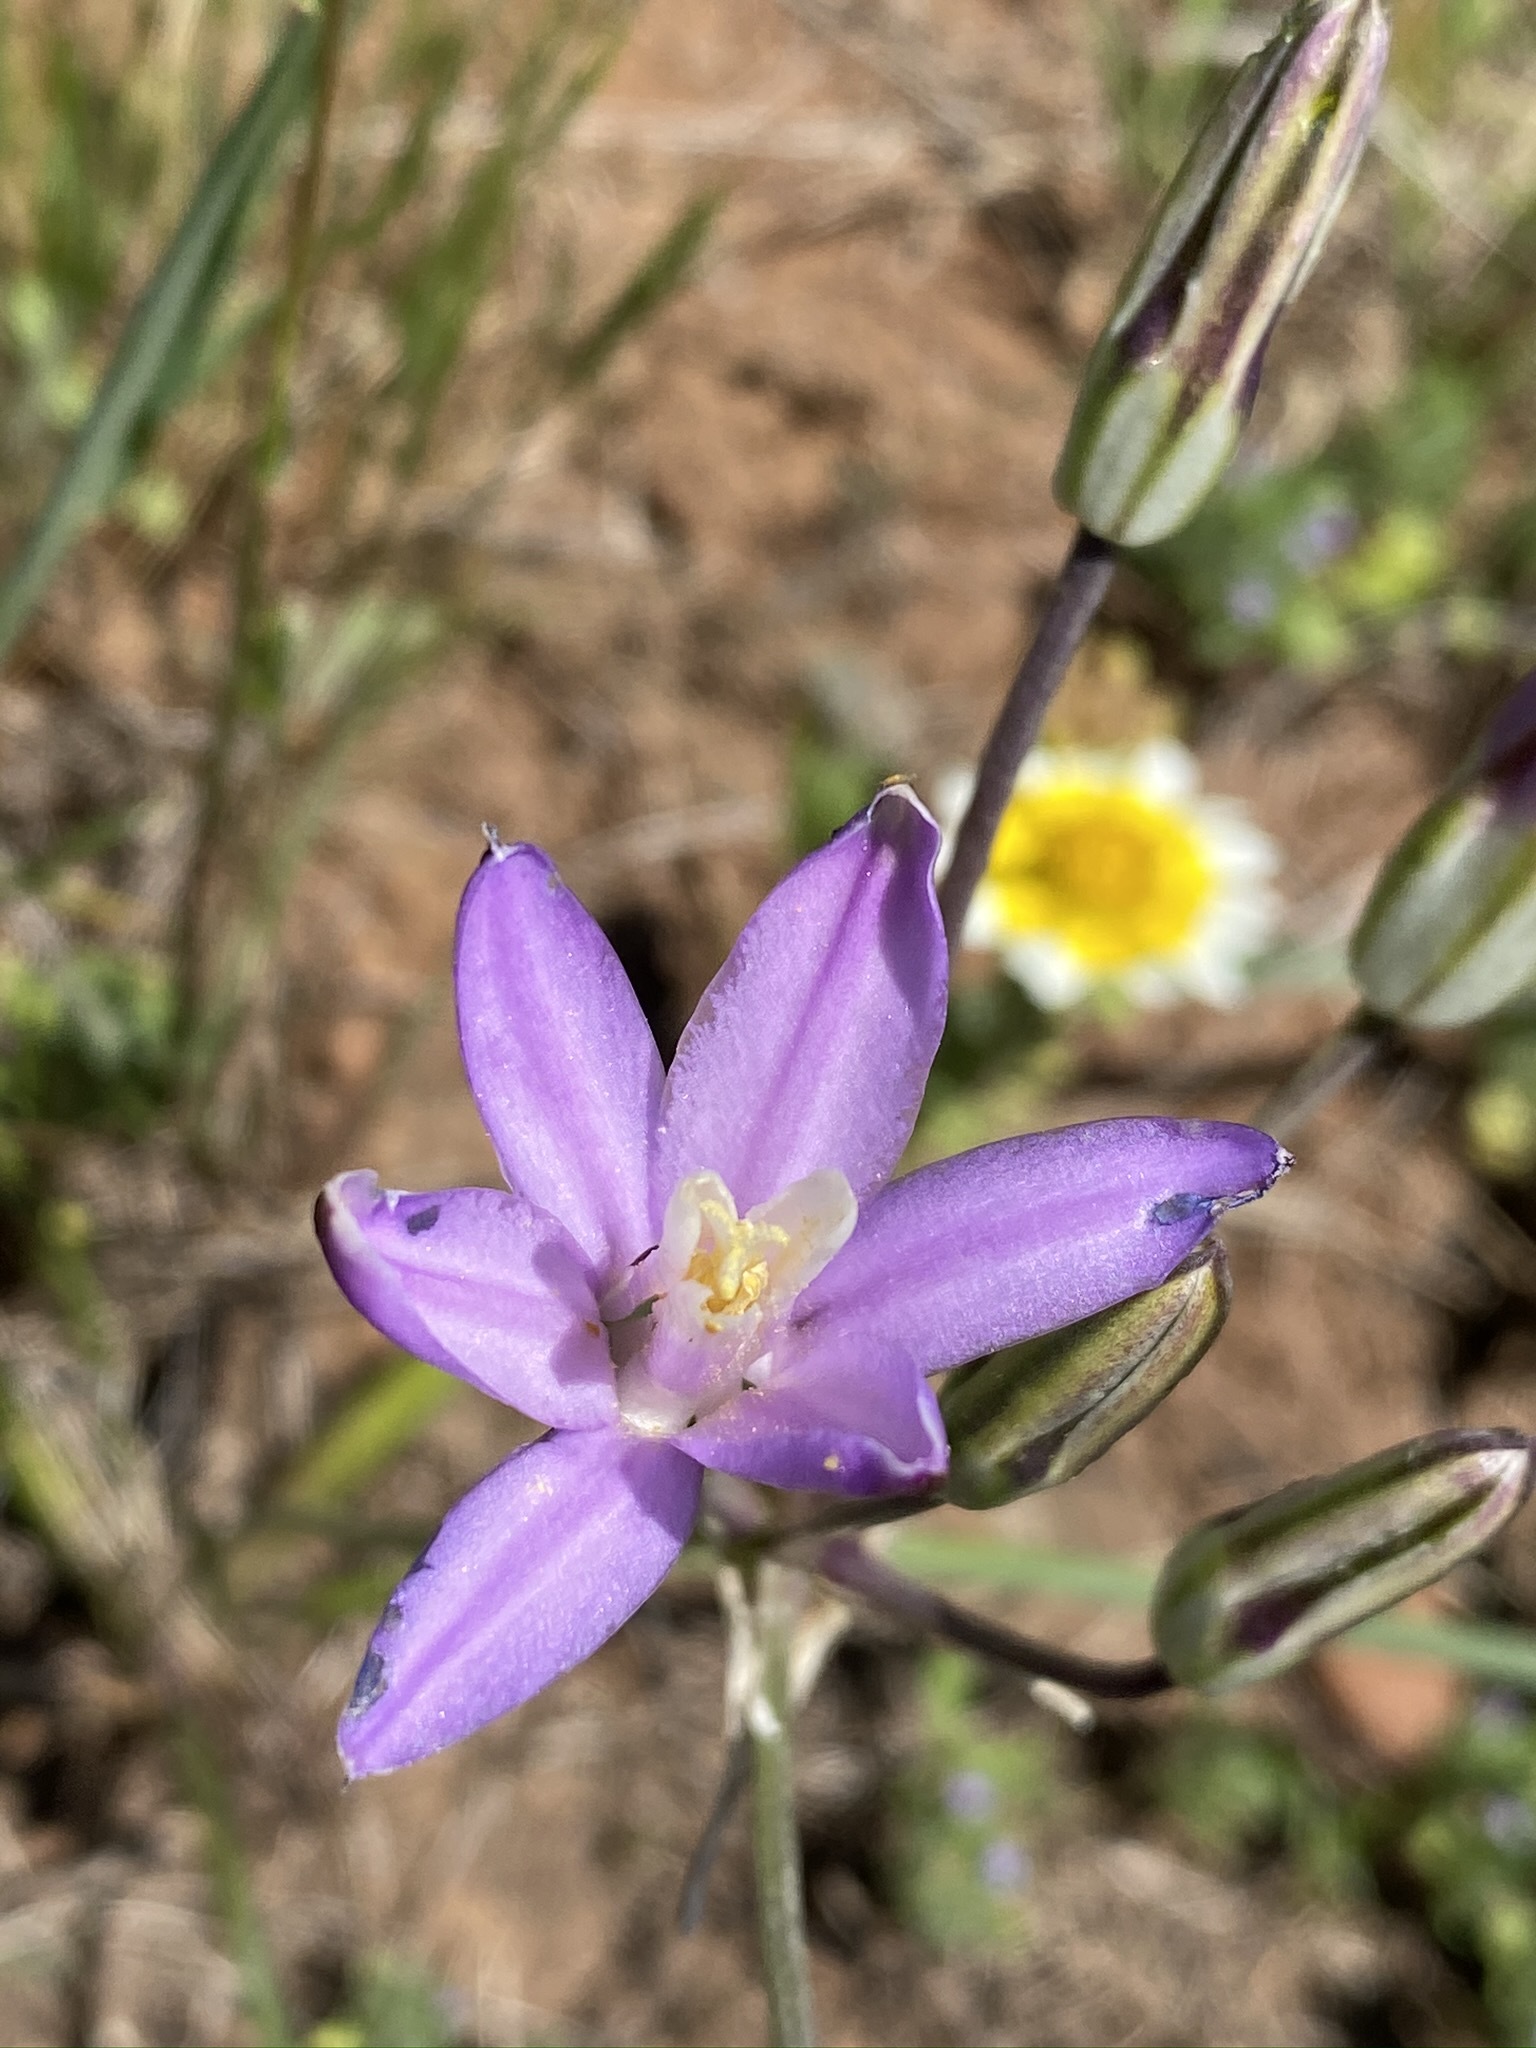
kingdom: Plantae
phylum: Tracheophyta
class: Liliopsida
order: Asparagales
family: Asparagaceae
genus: Brodiaea
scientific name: Brodiaea nana
